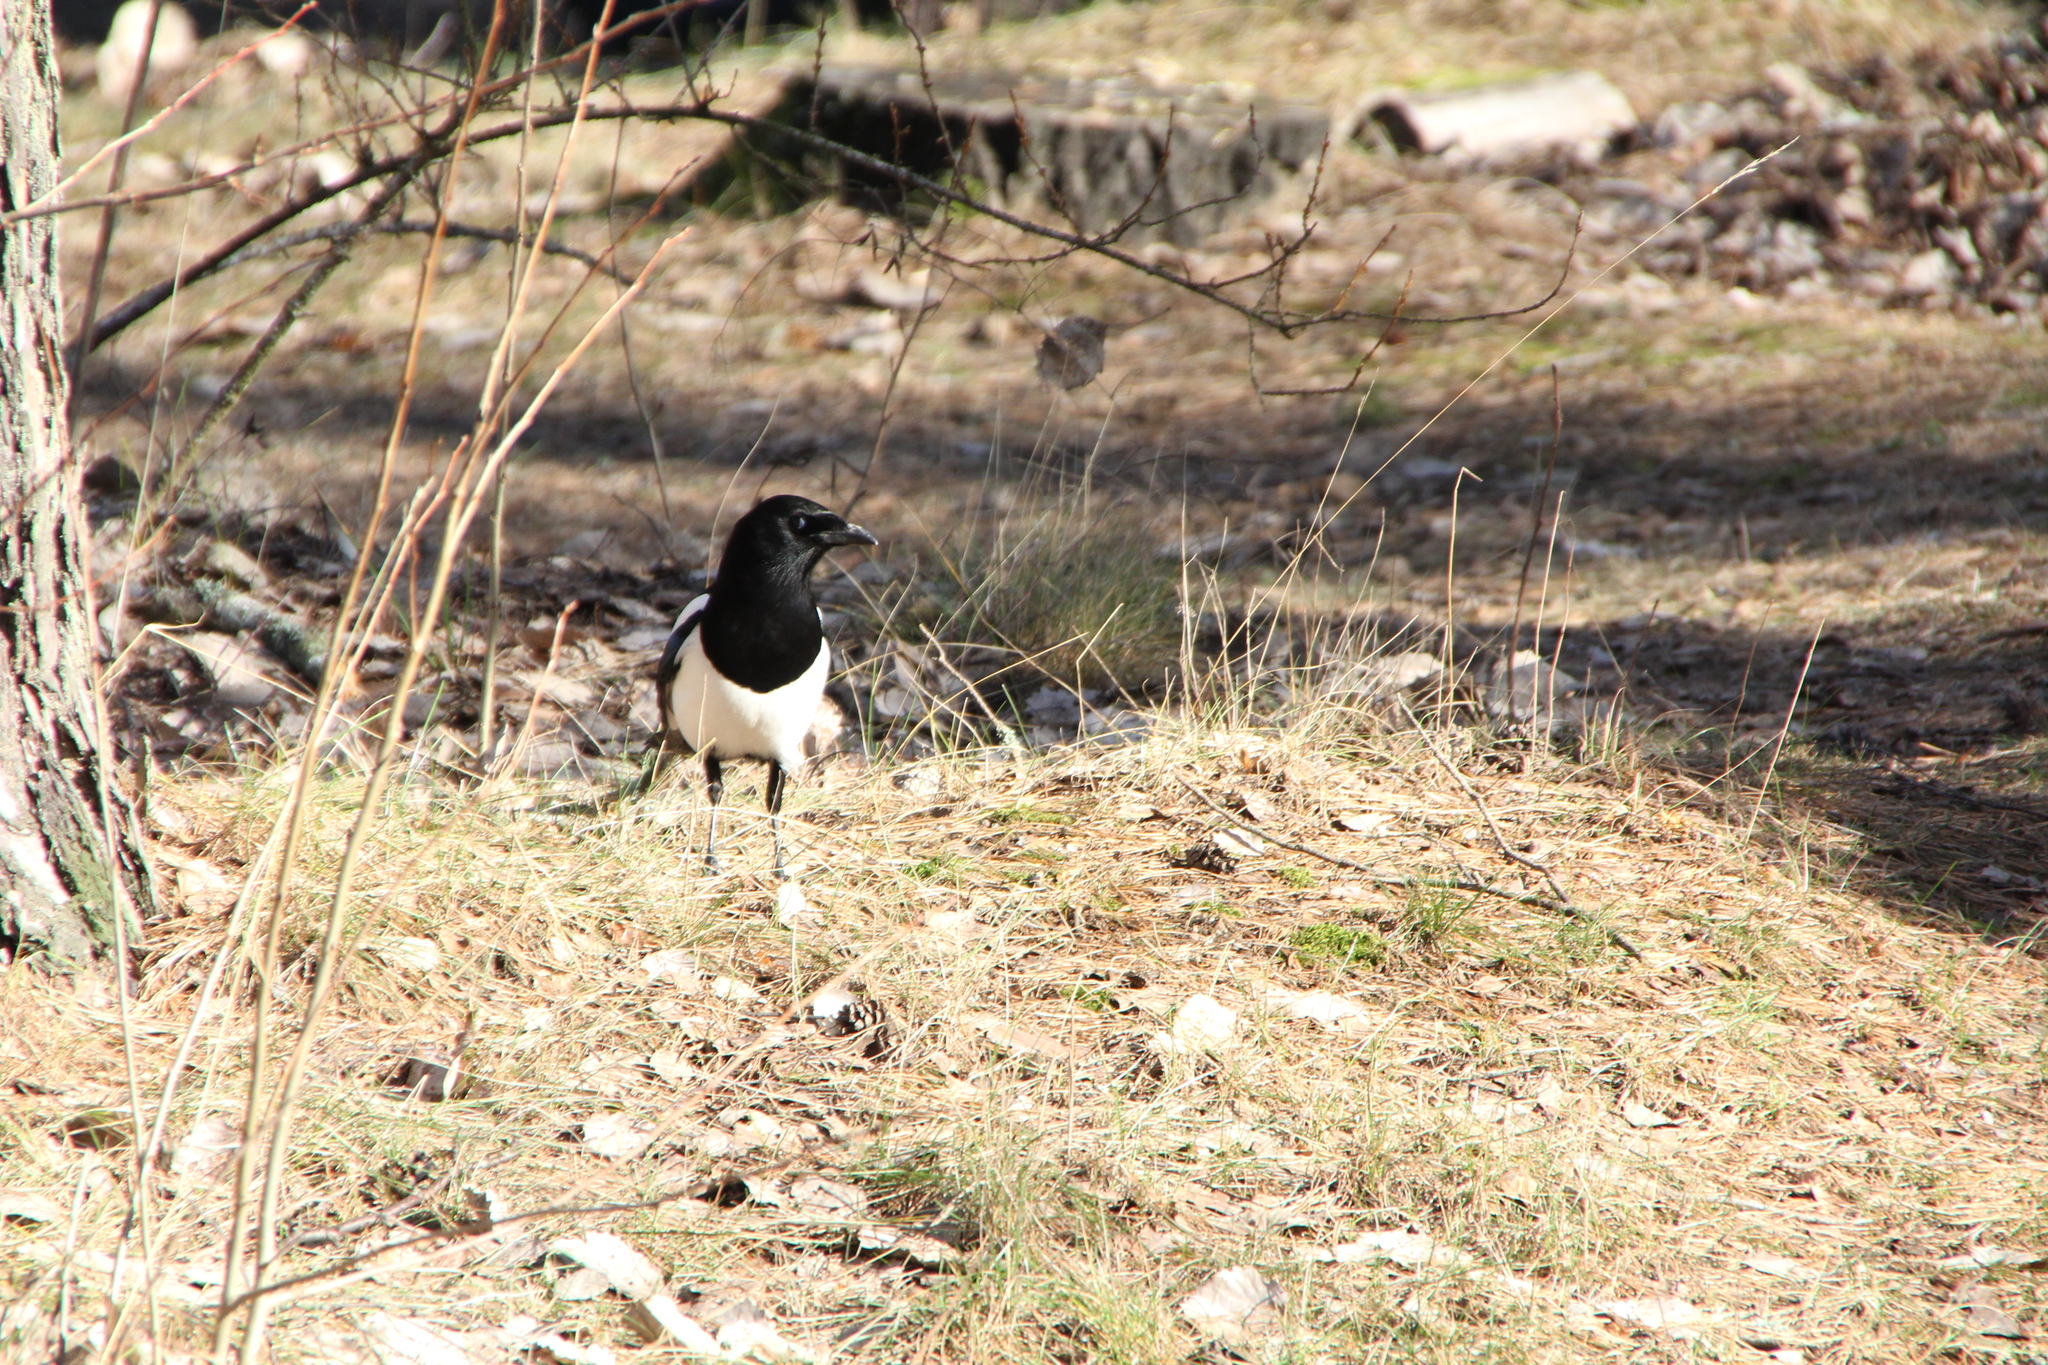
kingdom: Animalia
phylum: Chordata
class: Aves
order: Passeriformes
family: Corvidae
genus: Pica
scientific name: Pica pica
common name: Eurasian magpie
